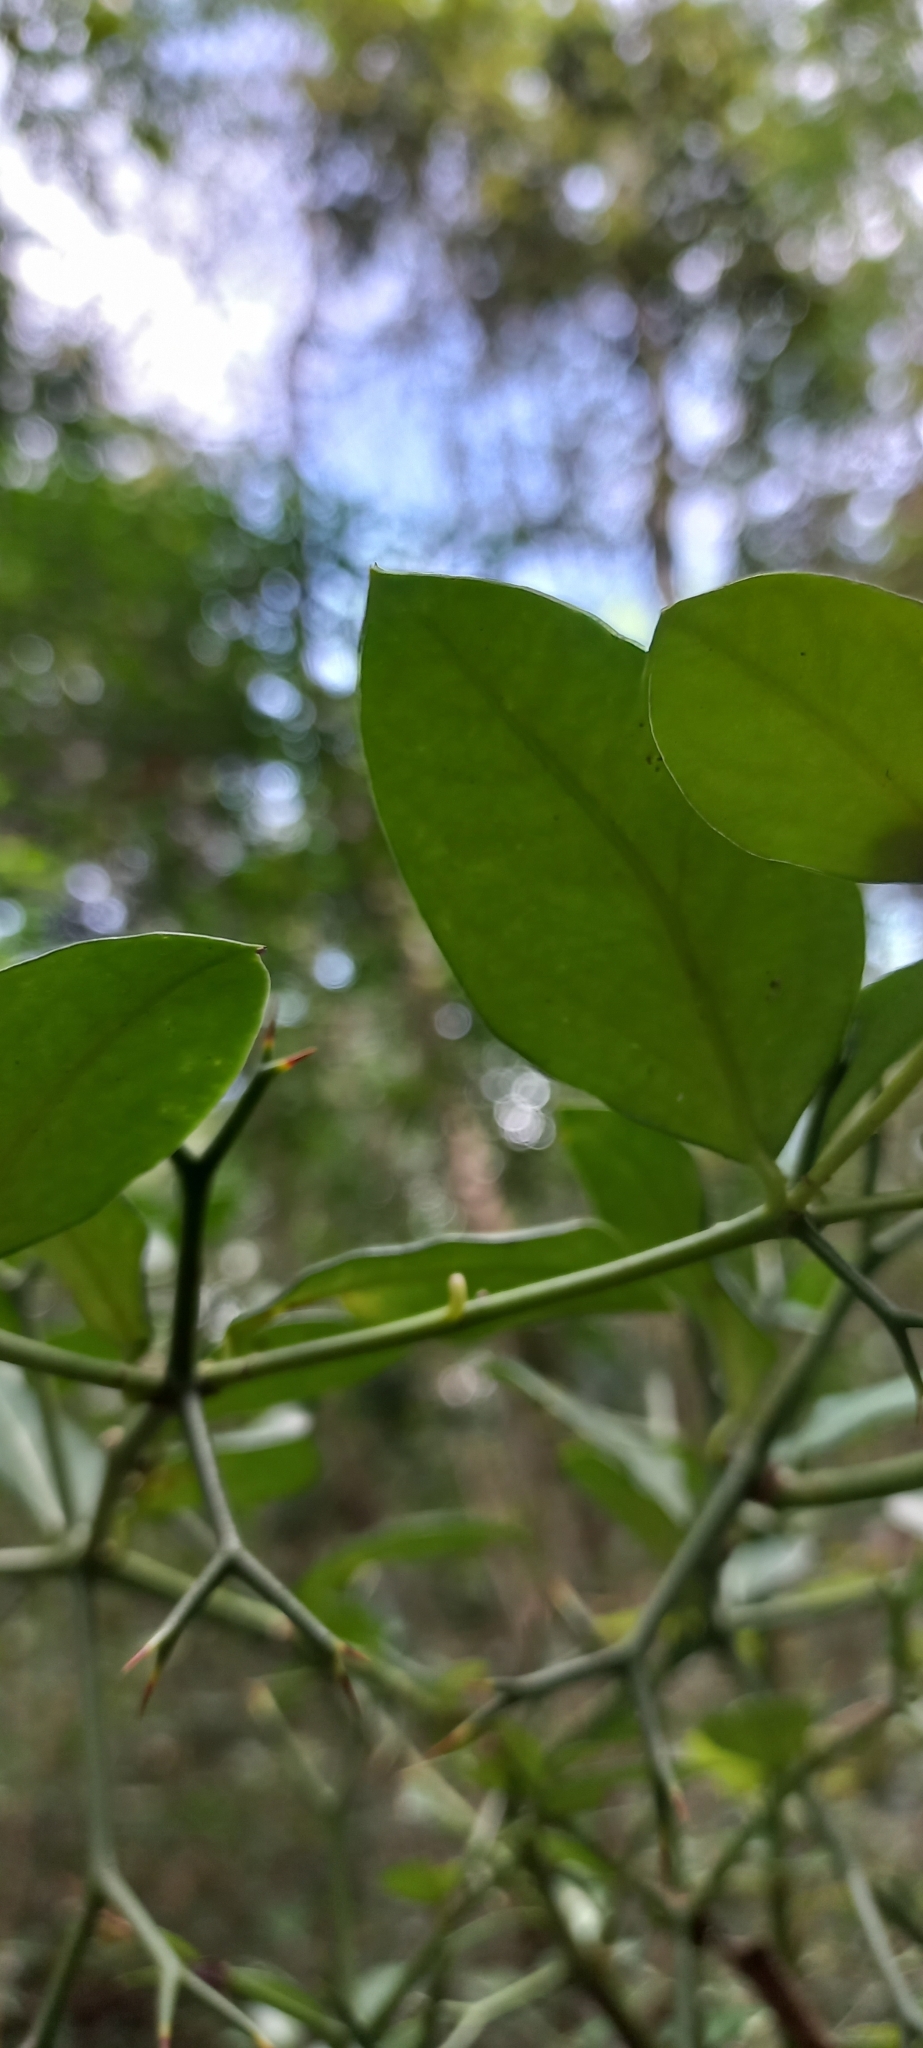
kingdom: Plantae
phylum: Tracheophyta
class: Magnoliopsida
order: Gentianales
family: Apocynaceae
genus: Carissa
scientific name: Carissa bispinosa
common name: Forest num-num
